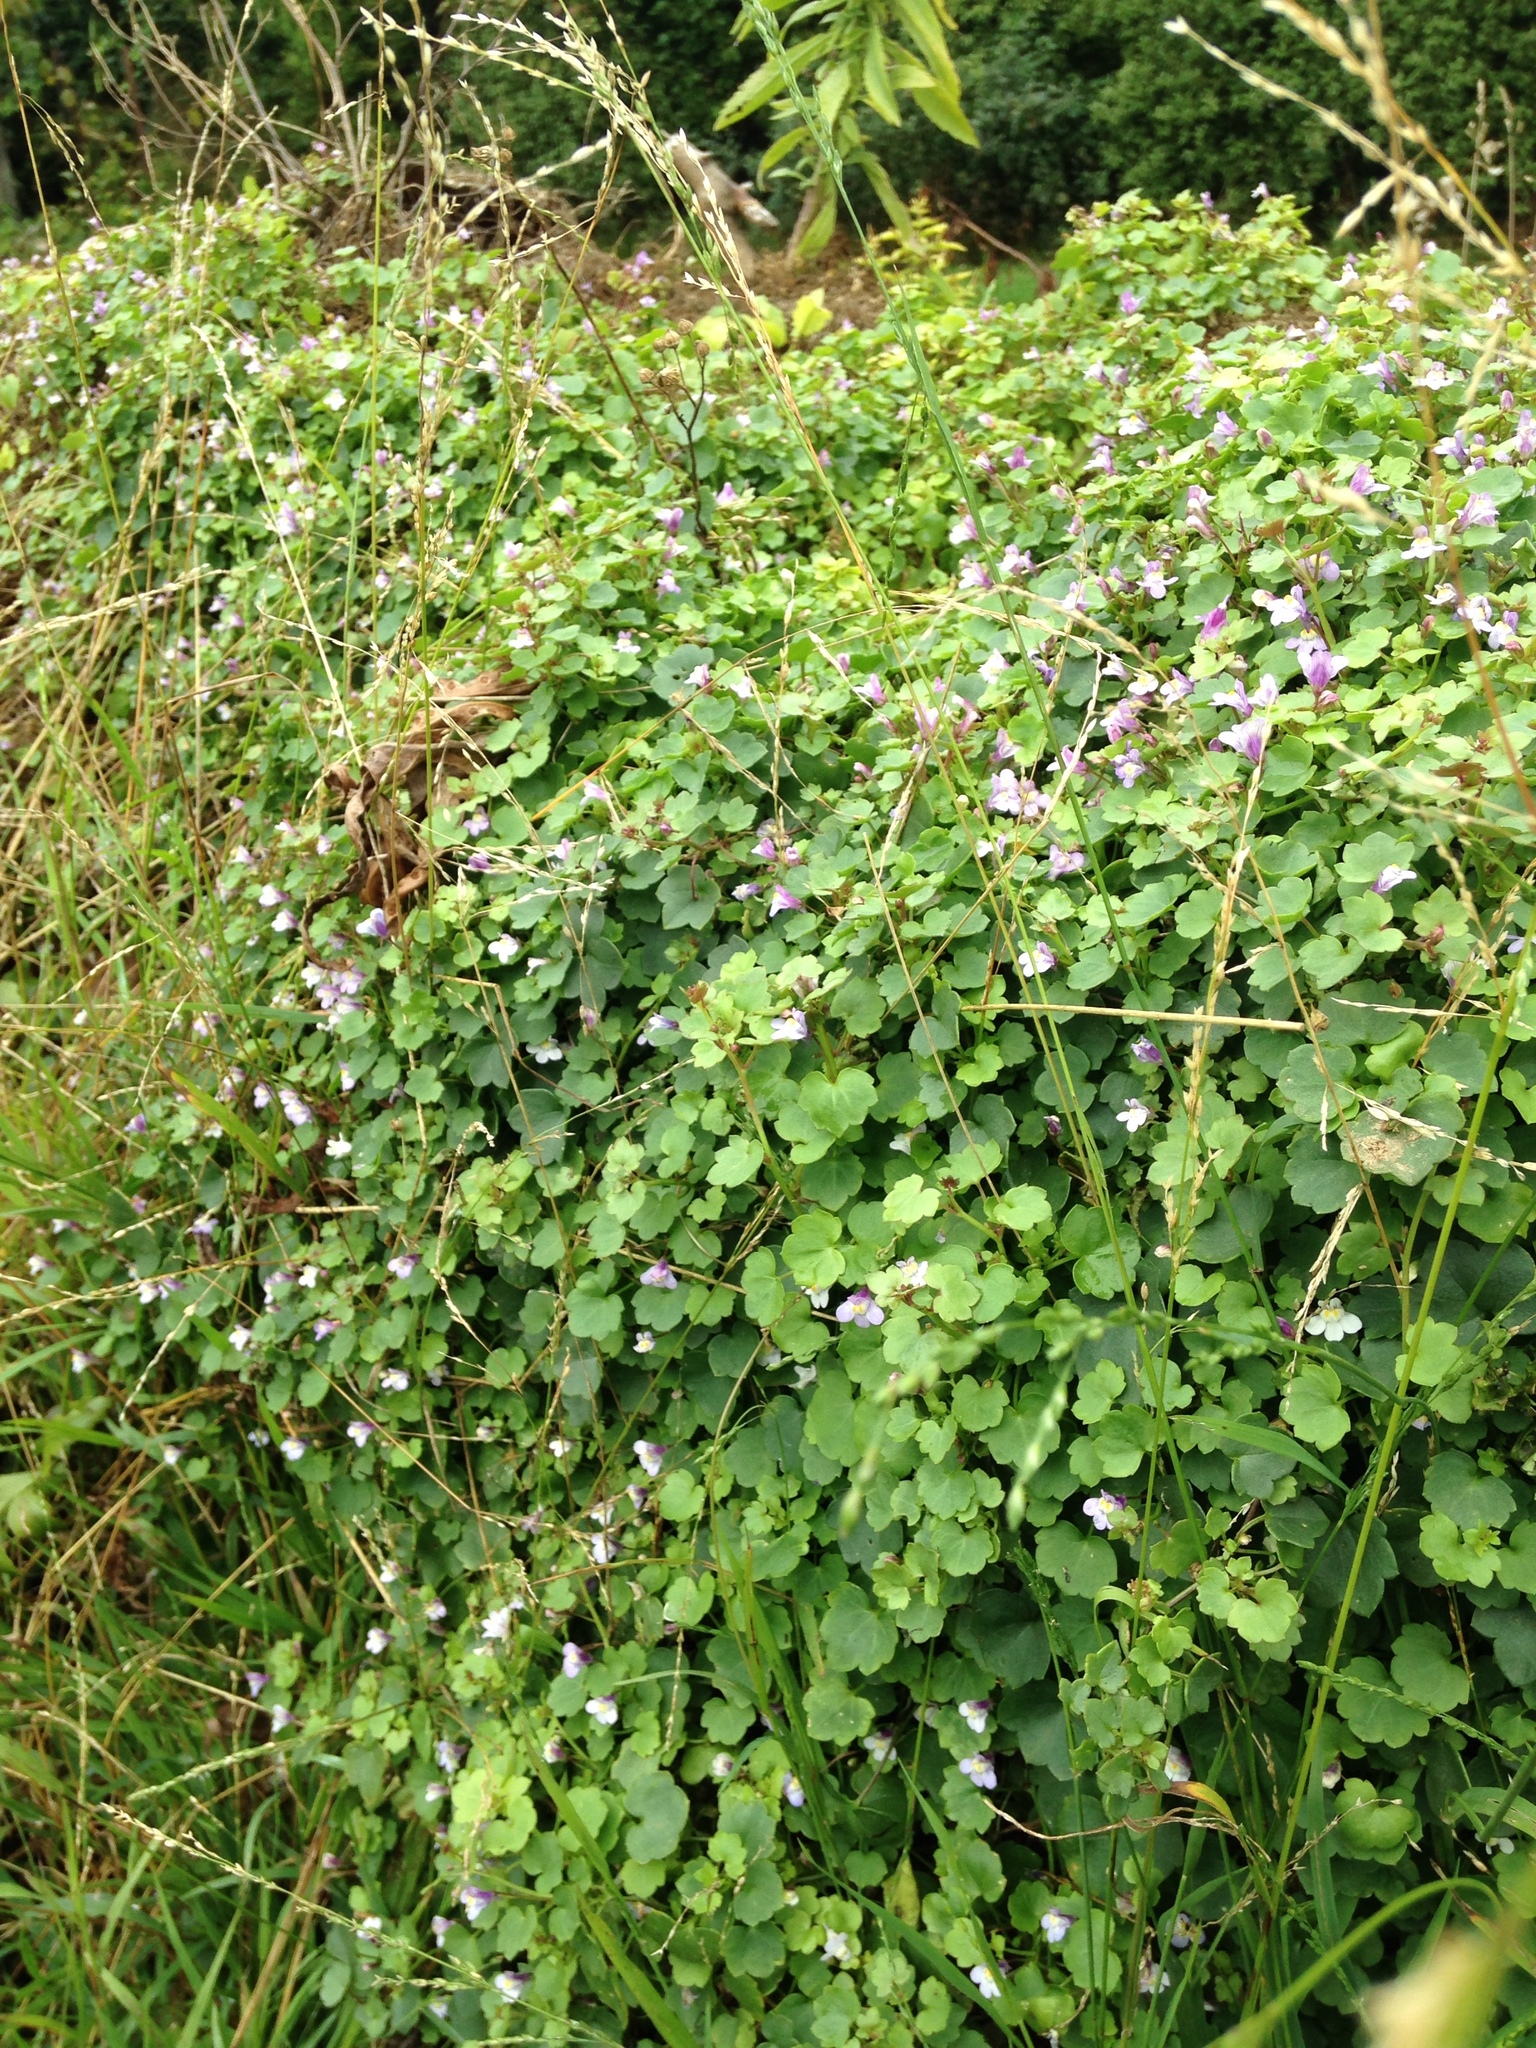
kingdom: Plantae
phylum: Tracheophyta
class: Magnoliopsida
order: Lamiales
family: Plantaginaceae
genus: Cymbalaria
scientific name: Cymbalaria muralis
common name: Ivy-leaved toadflax
